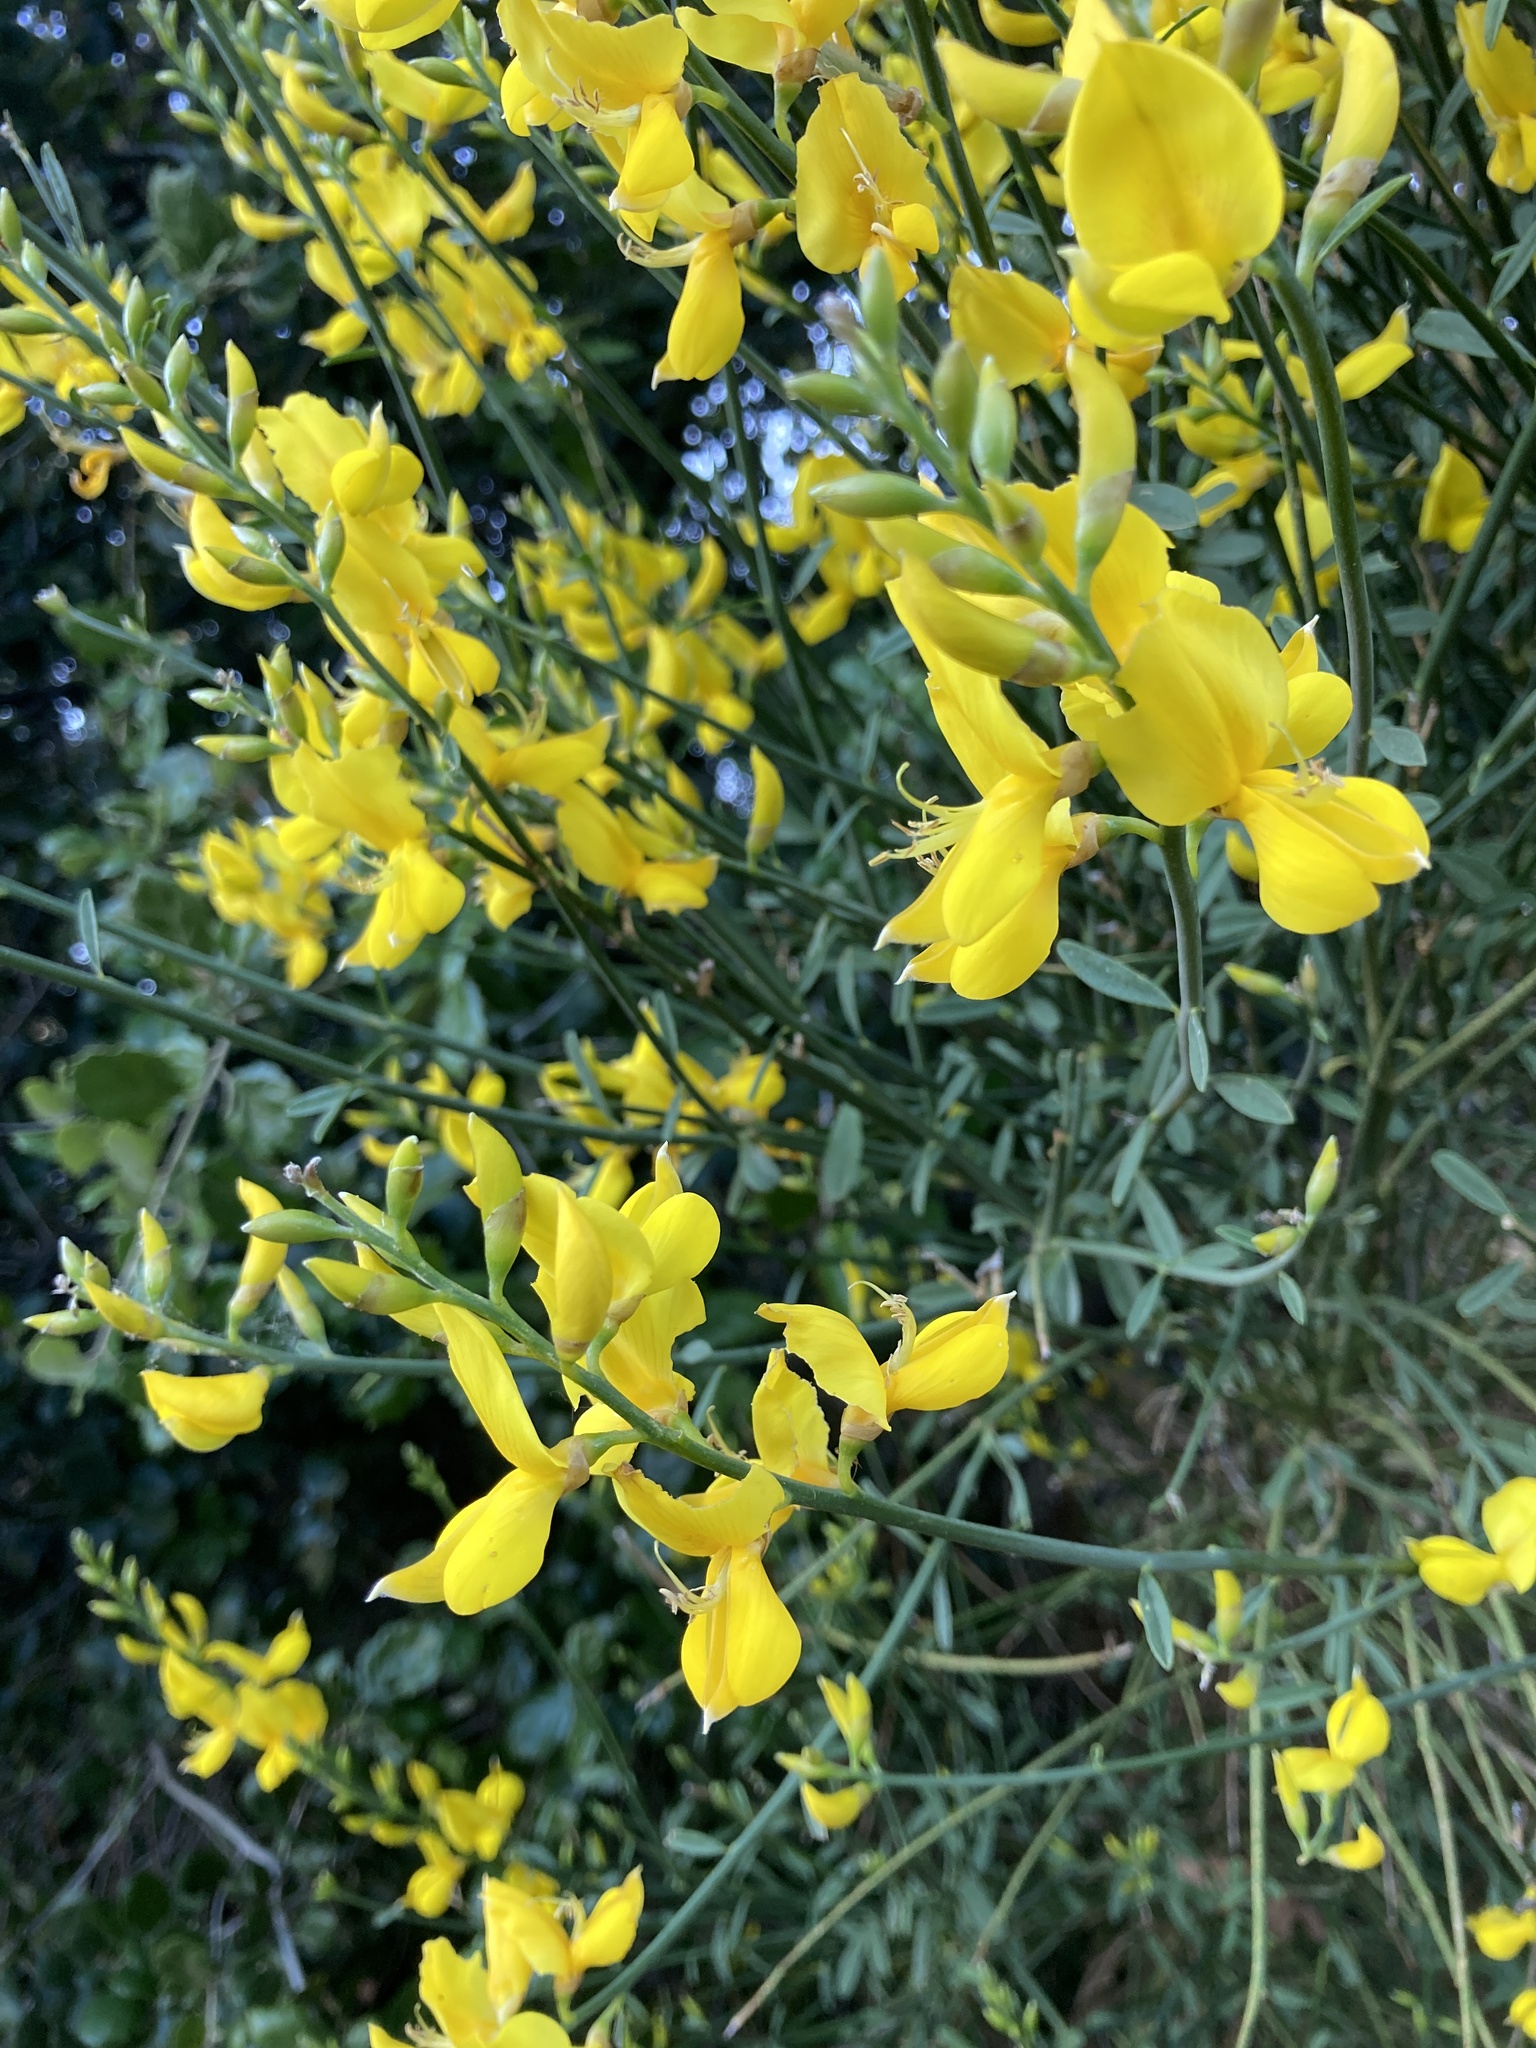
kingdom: Plantae
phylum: Tracheophyta
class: Magnoliopsida
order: Fabales
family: Fabaceae
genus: Spartium
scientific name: Spartium junceum
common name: Spanish broom
